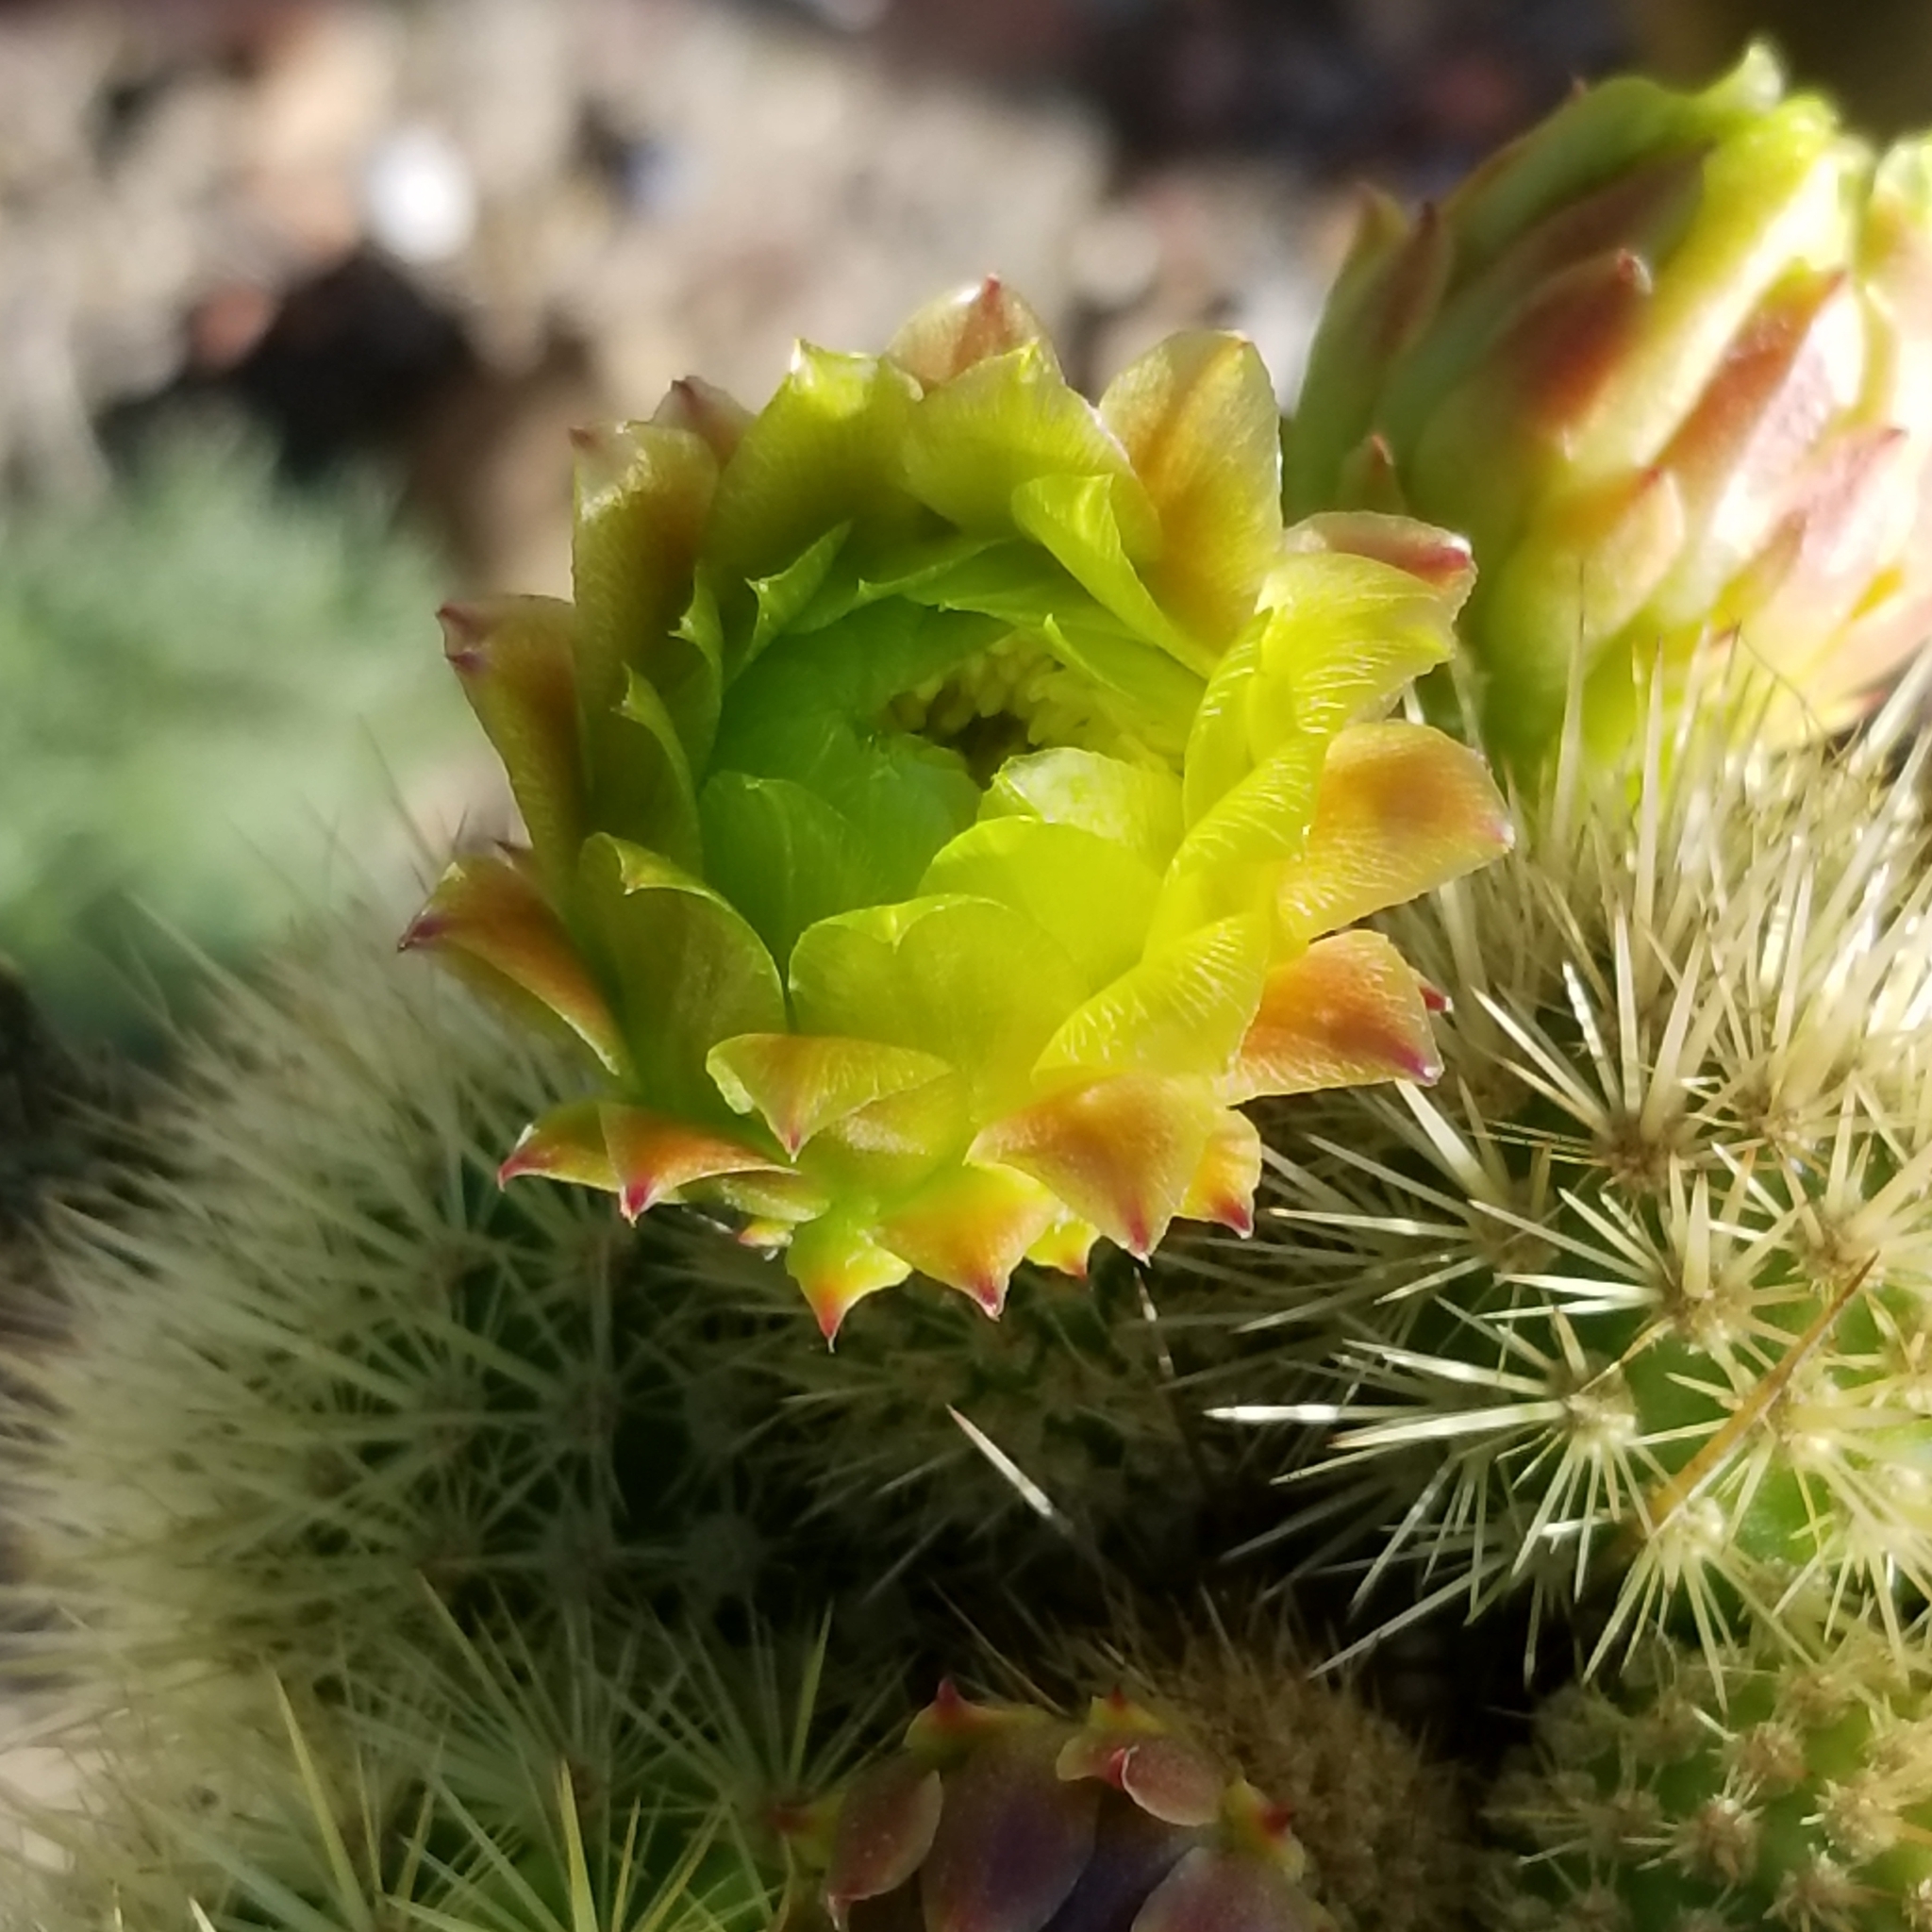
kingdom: Plantae
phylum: Tracheophyta
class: Magnoliopsida
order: Caryophyllales
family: Cactaceae
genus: Bergerocactus
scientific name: Bergerocactus emoryi
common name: Golden snakecactus
